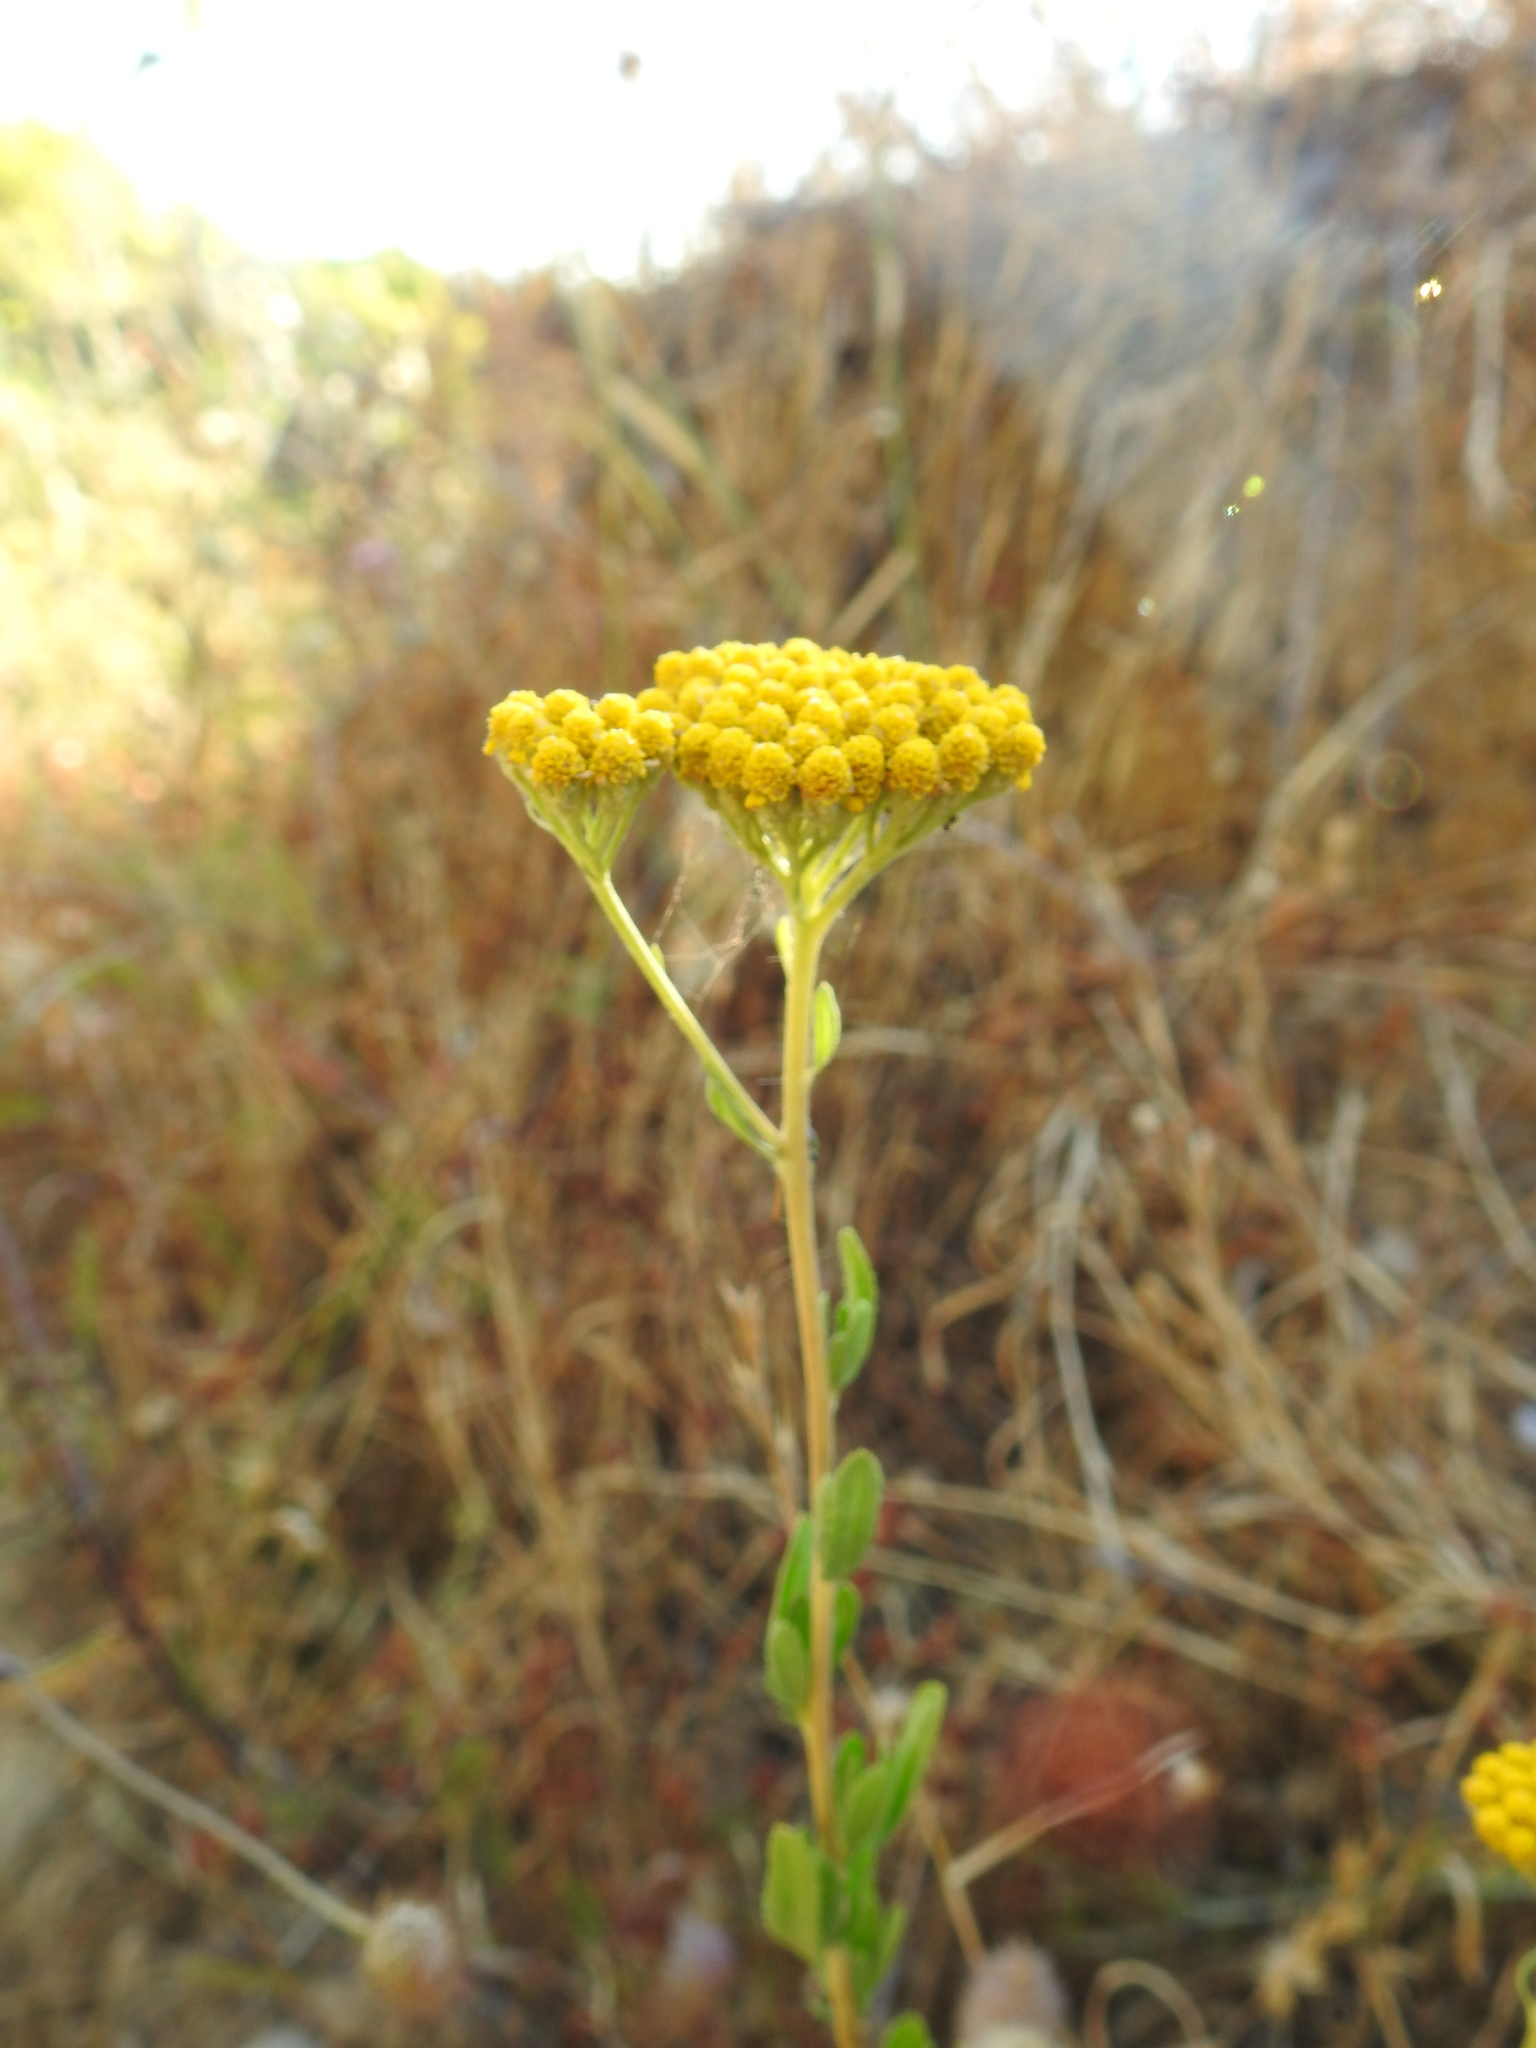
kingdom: Plantae
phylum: Tracheophyta
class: Magnoliopsida
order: Asterales
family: Asteraceae
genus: Achillea
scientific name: Achillea ageratum
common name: Sweet-nancy
